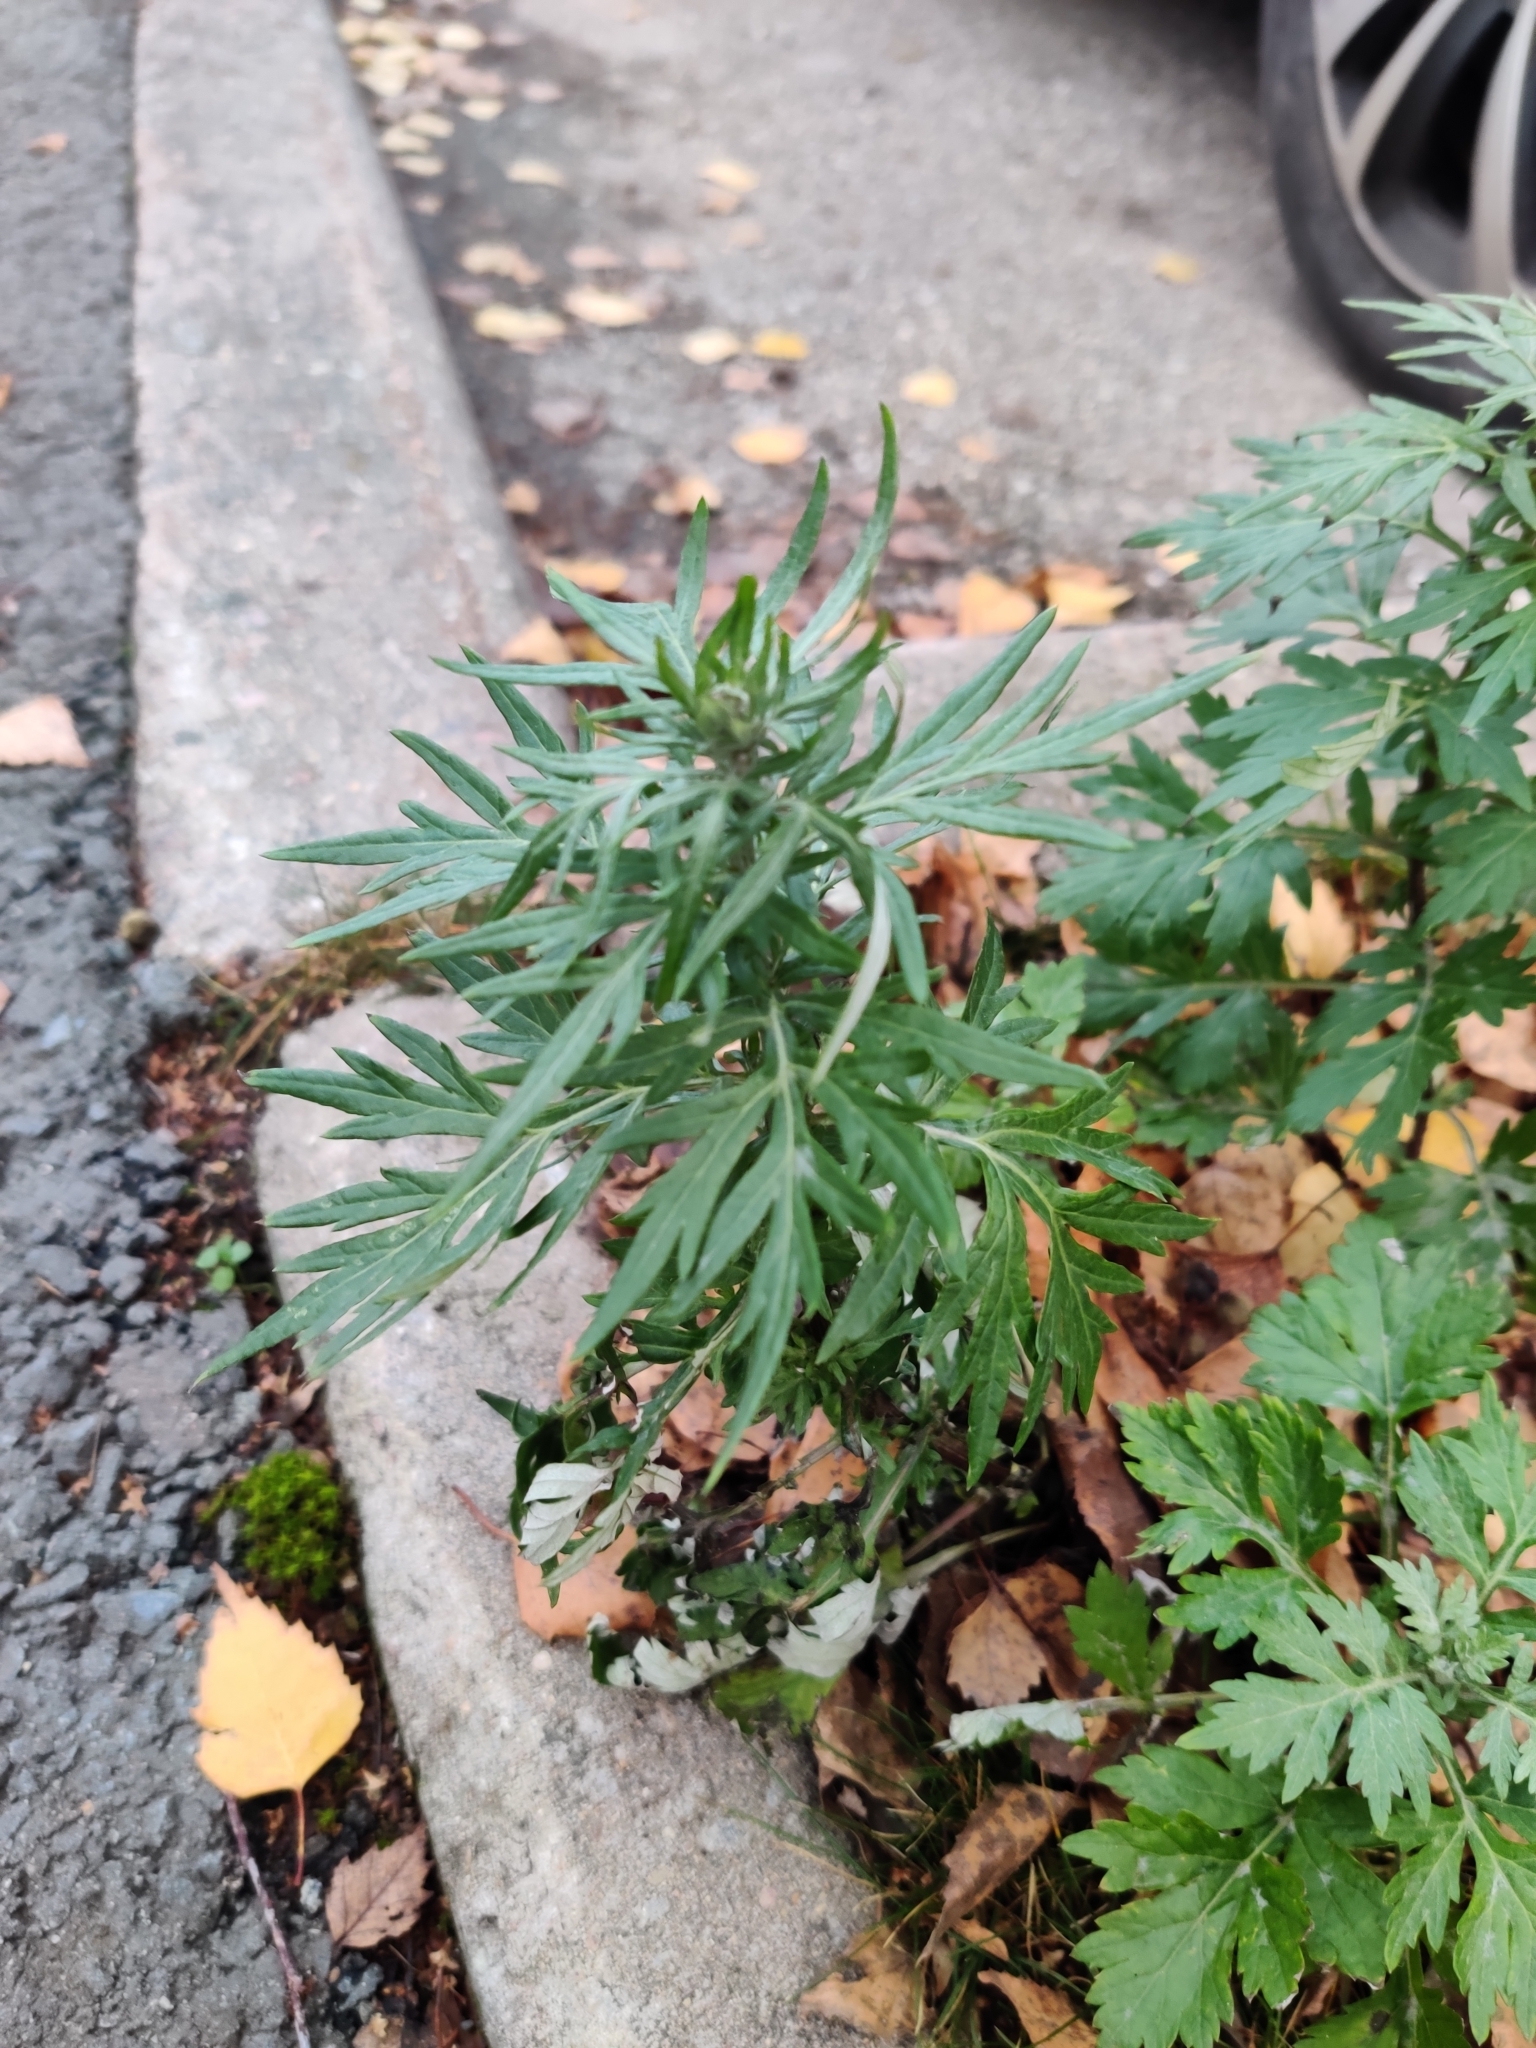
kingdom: Plantae
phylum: Tracheophyta
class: Magnoliopsida
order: Asterales
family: Asteraceae
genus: Artemisia
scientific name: Artemisia vulgaris
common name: Mugwort
